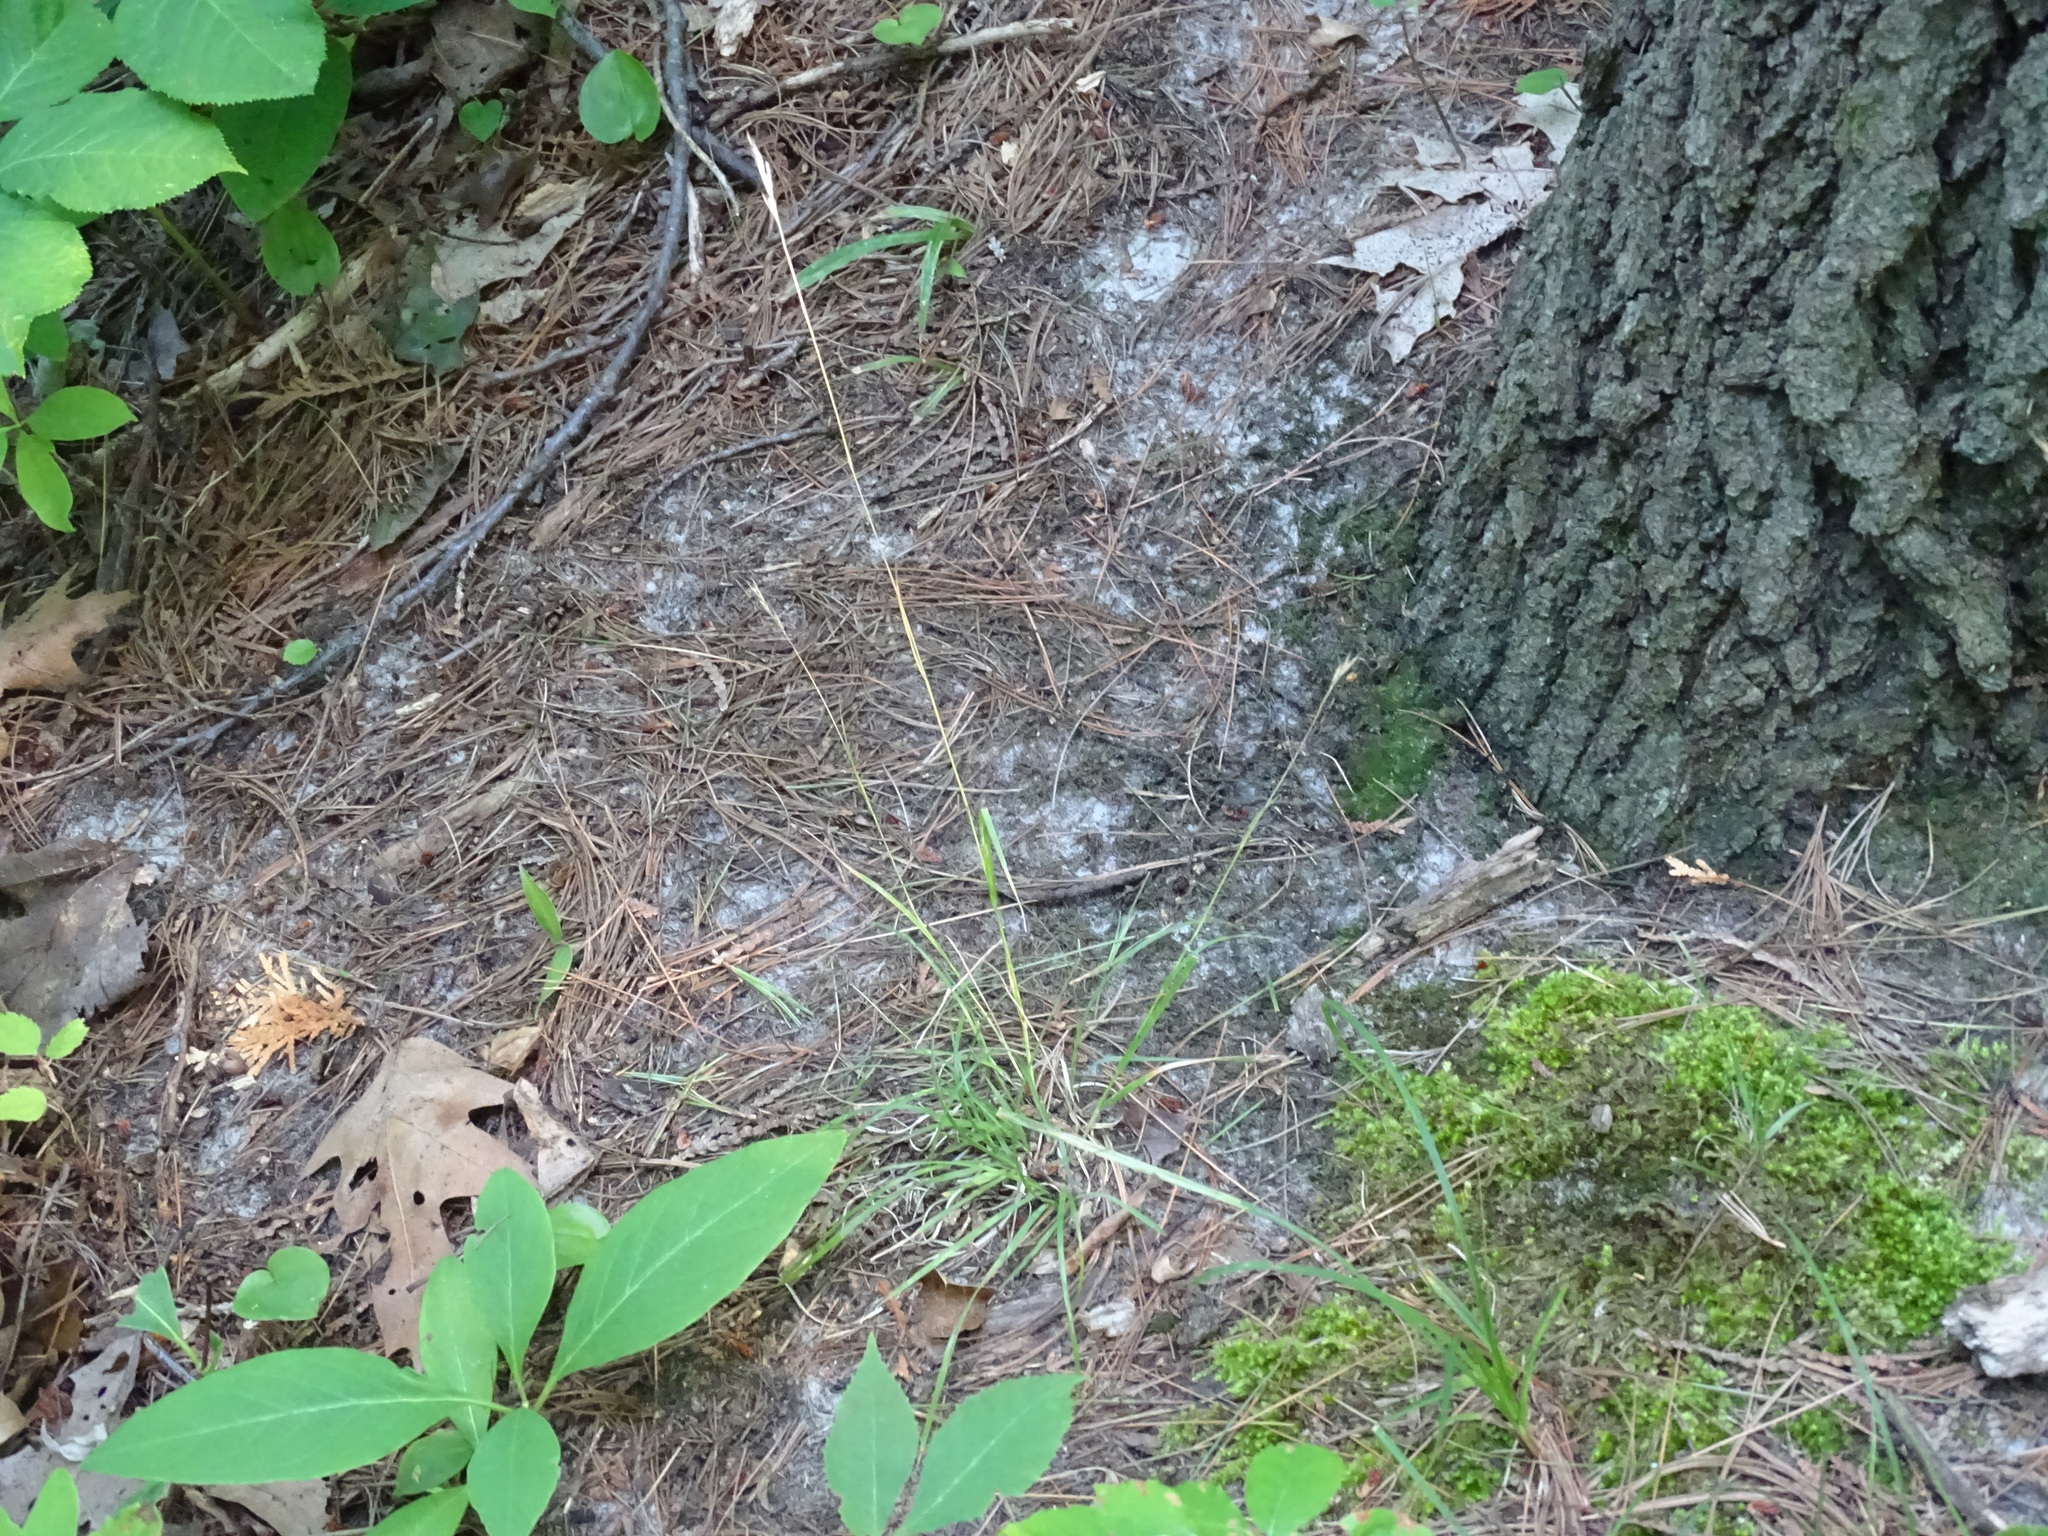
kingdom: Plantae
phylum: Tracheophyta
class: Liliopsida
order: Poales
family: Poaceae
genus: Danthonia
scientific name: Danthonia spicata
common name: Common wild oatgrass
